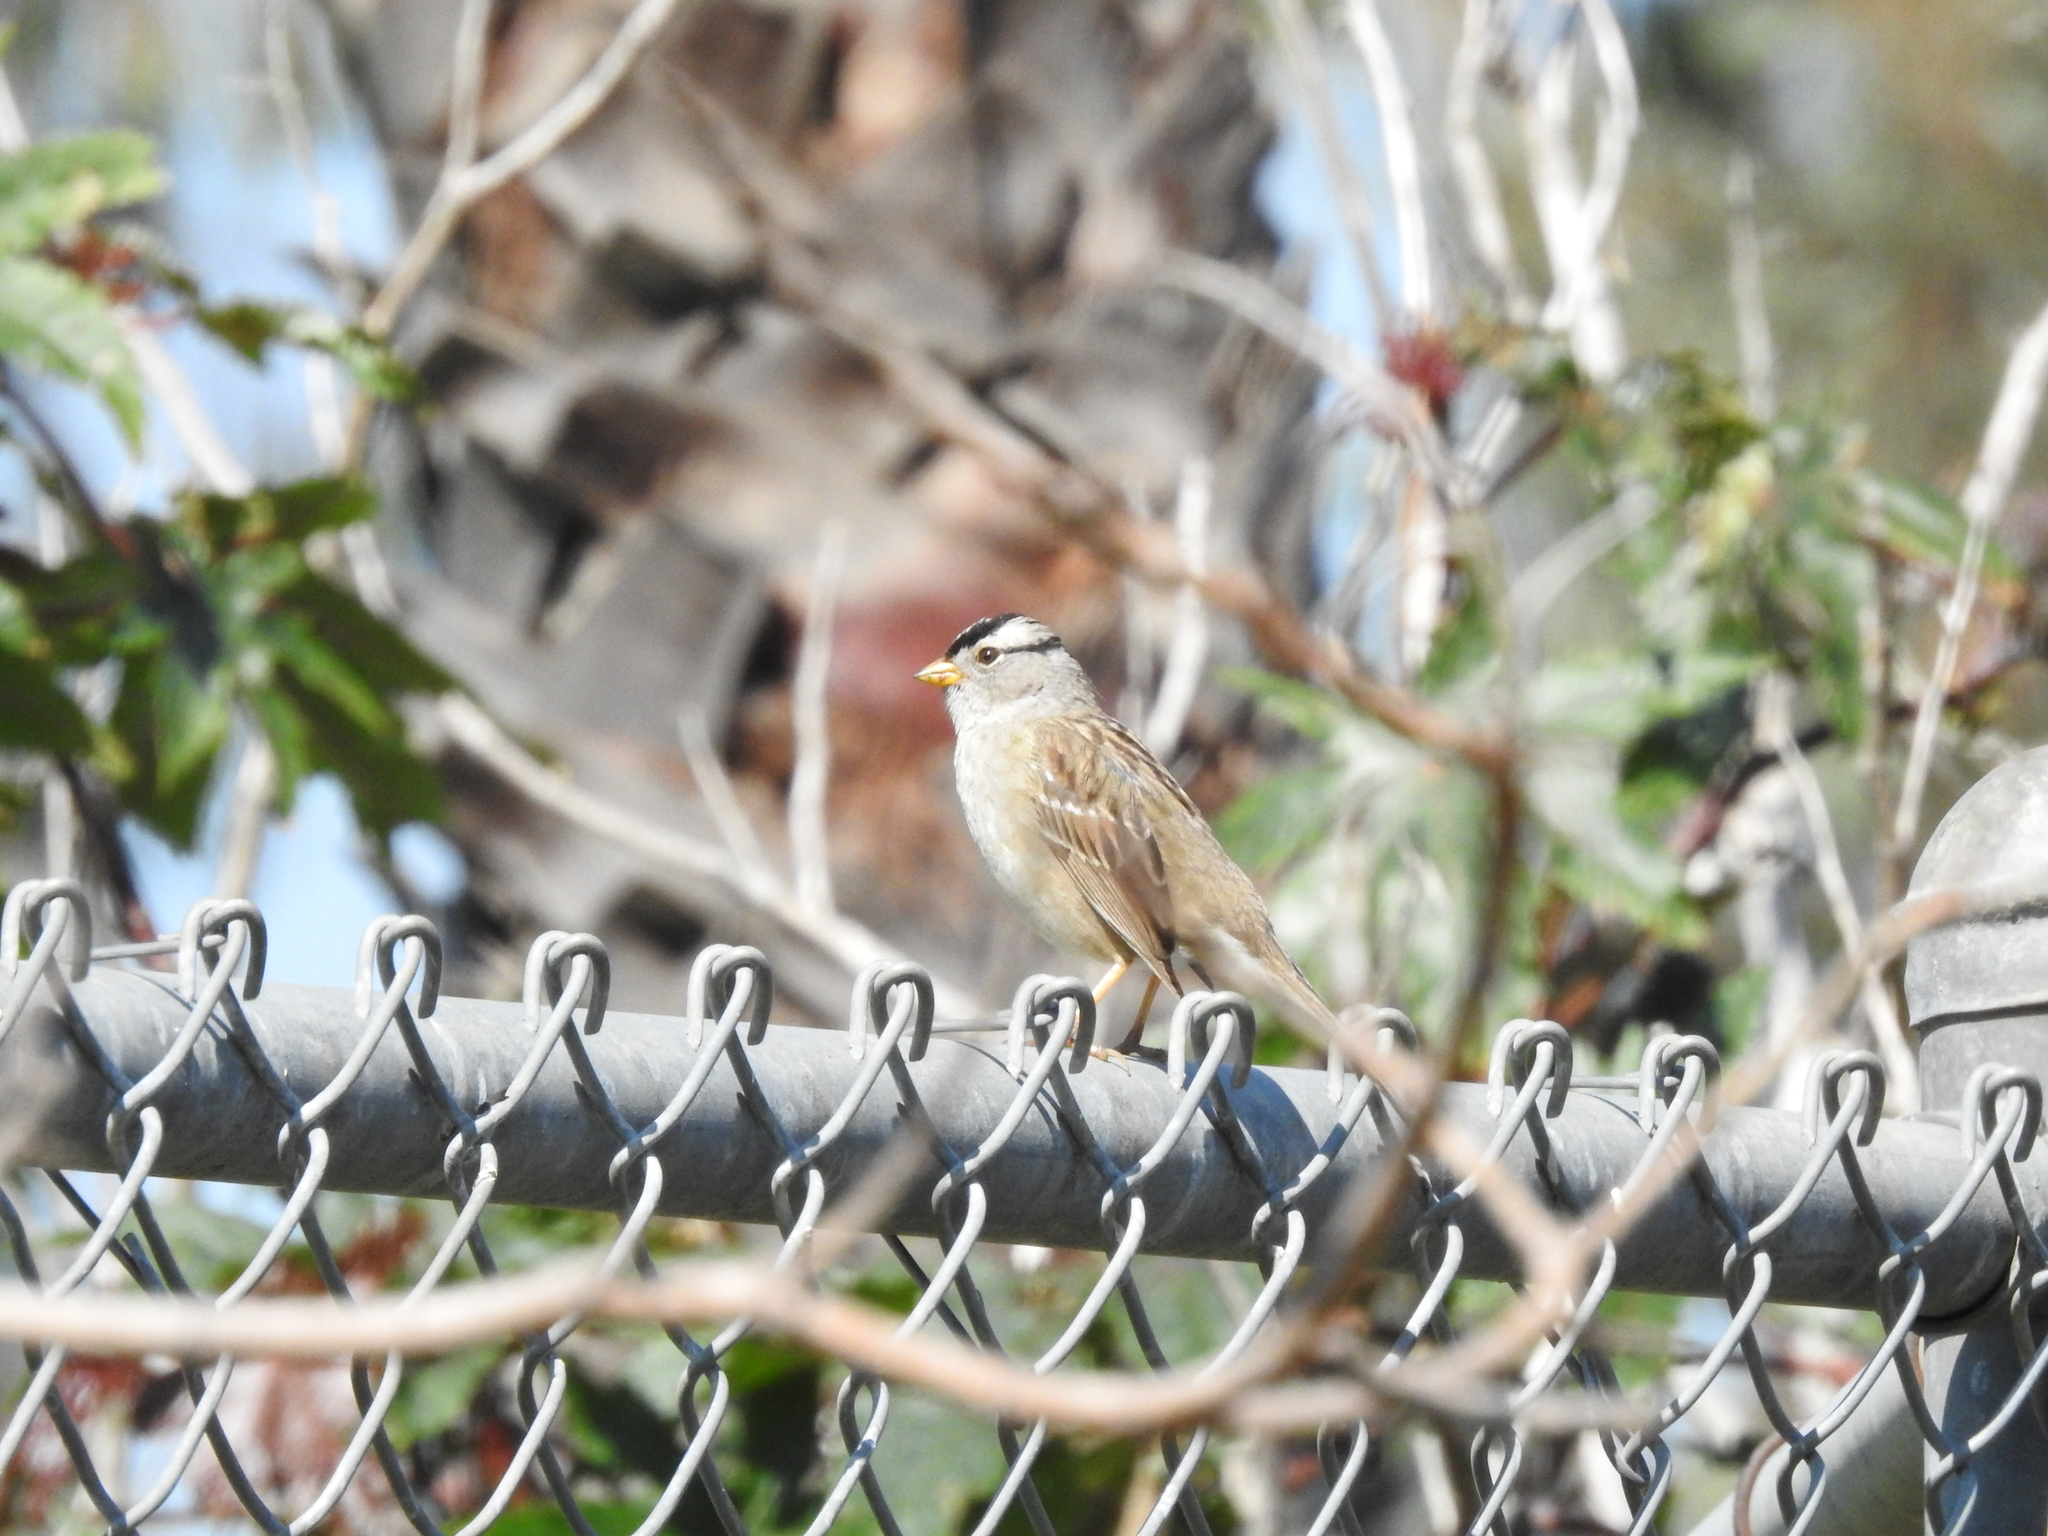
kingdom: Animalia
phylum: Chordata
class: Aves
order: Passeriformes
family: Passerellidae
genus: Zonotrichia
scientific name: Zonotrichia leucophrys
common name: White-crowned sparrow
